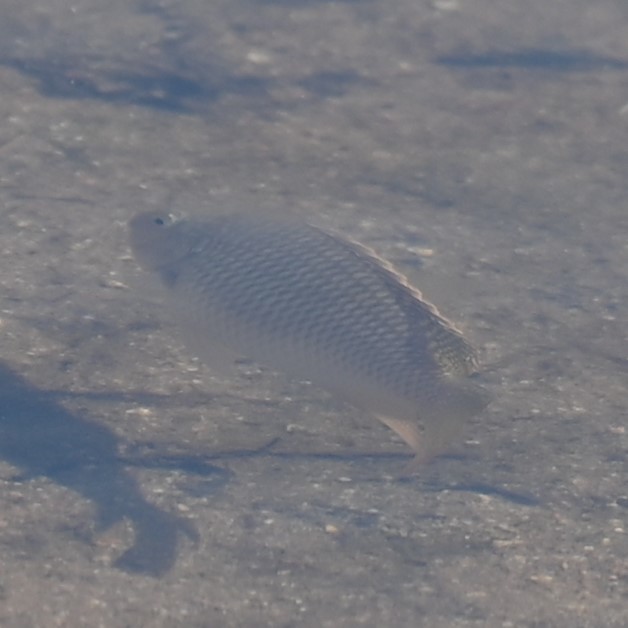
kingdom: Animalia
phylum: Chordata
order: Perciformes
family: Cichlidae
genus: Coptodon
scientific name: Coptodon rendalli
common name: Redbreast tilapia
